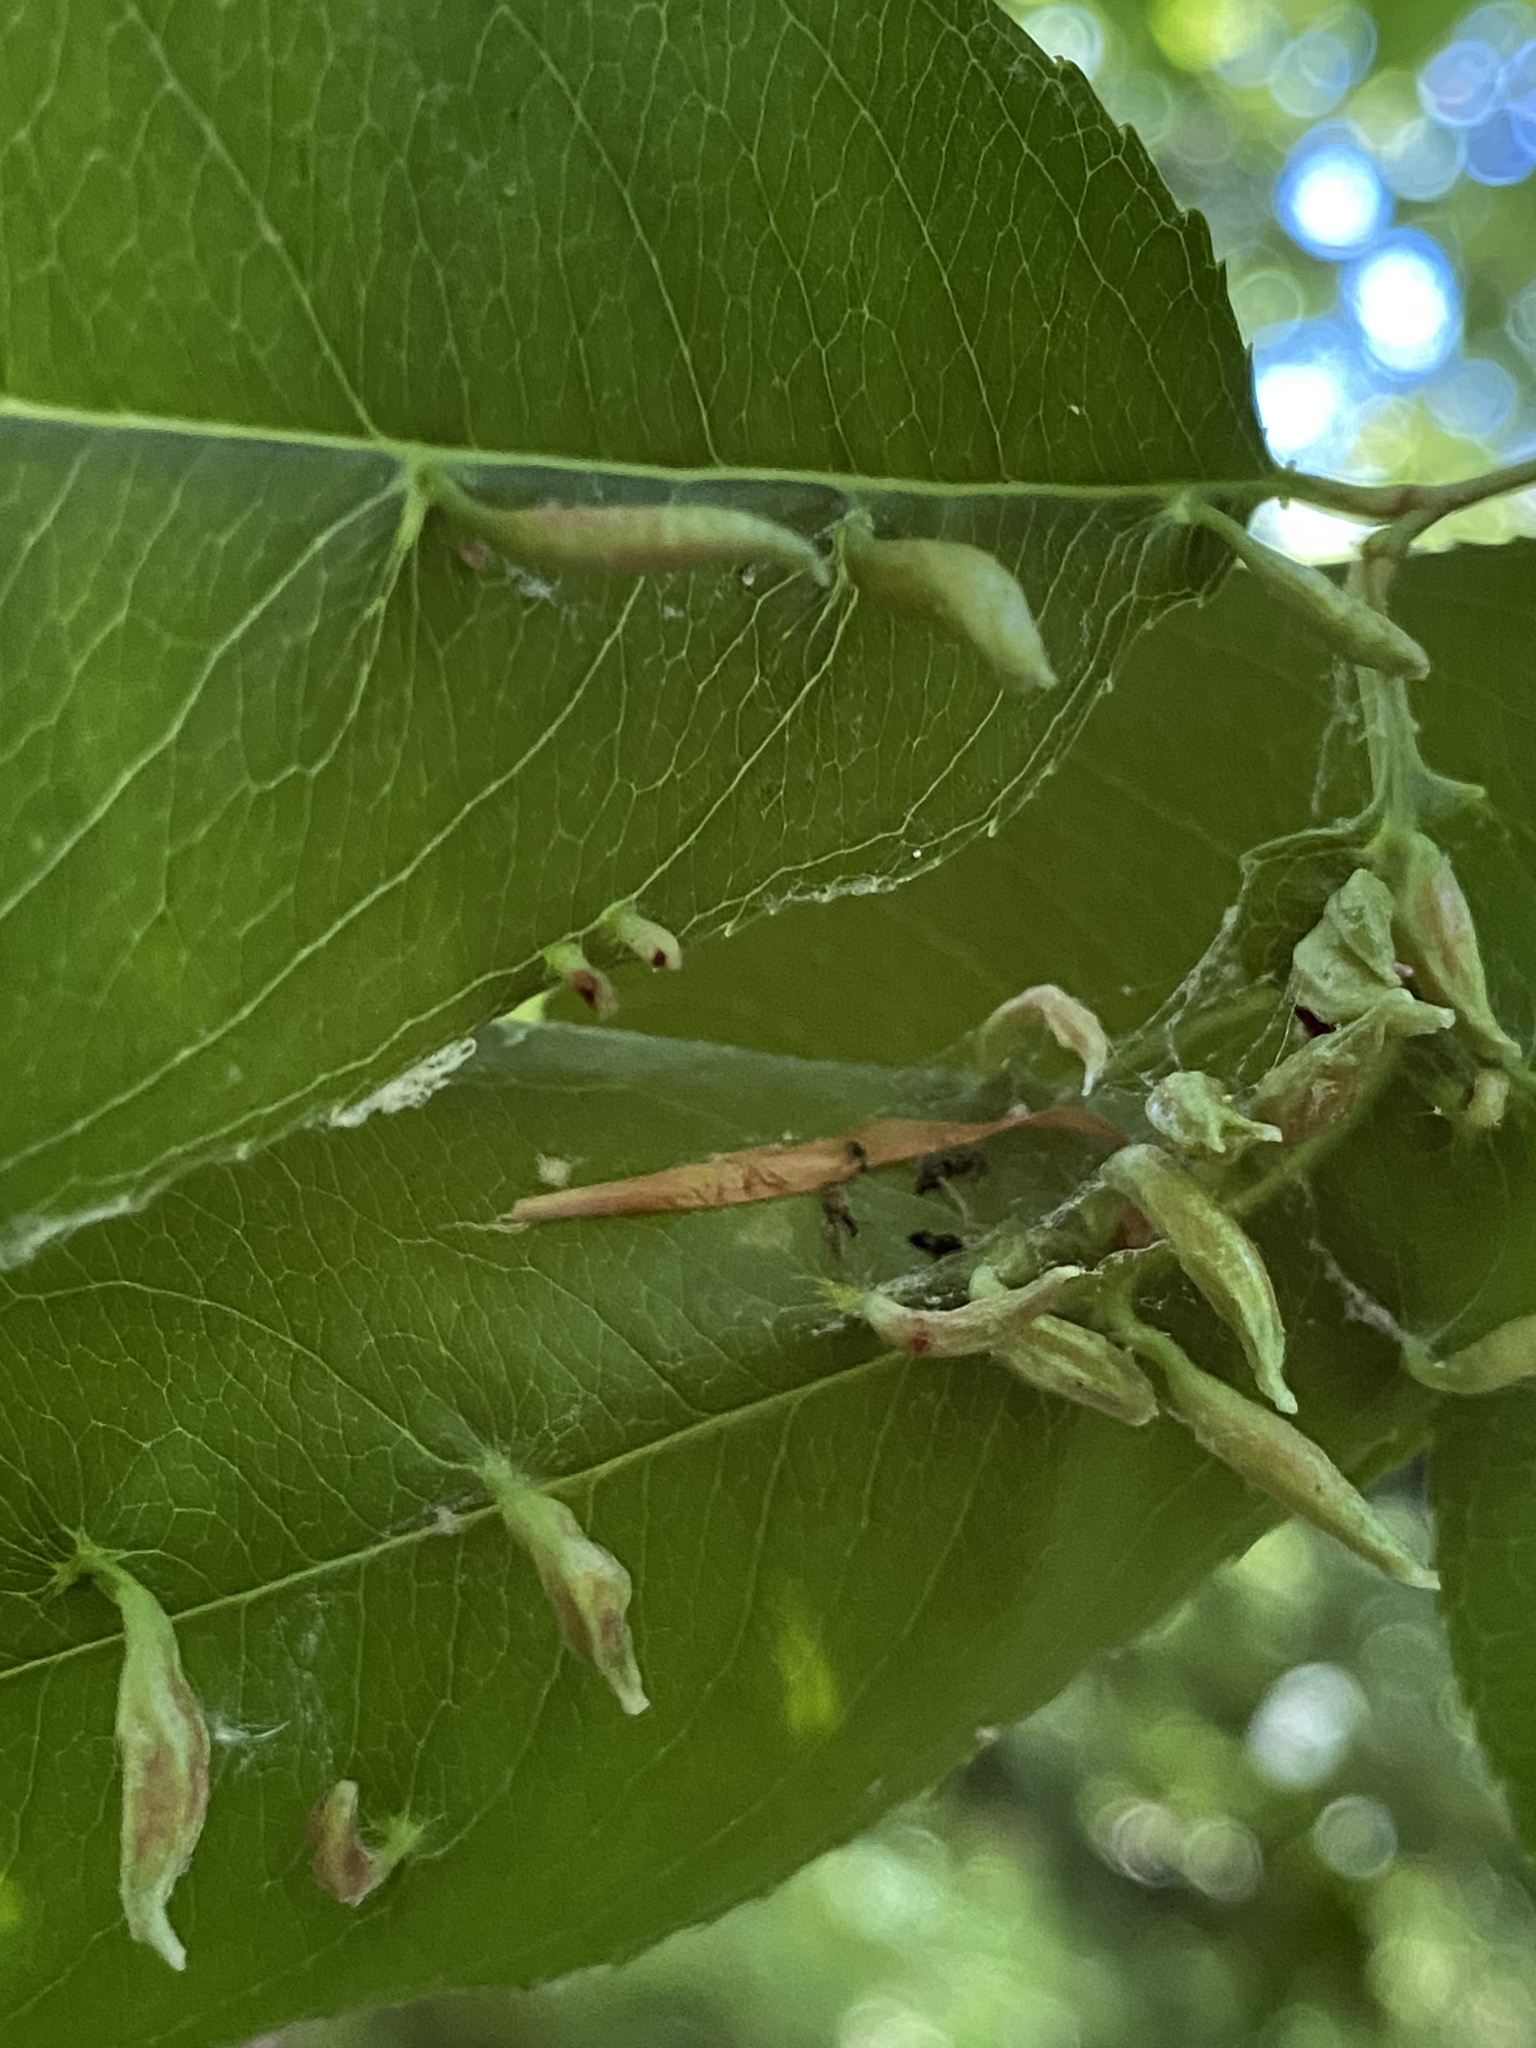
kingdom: Animalia
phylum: Arthropoda
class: Arachnida
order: Trombidiformes
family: Eriophyidae
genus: Eriophyes
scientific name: Eriophyes
